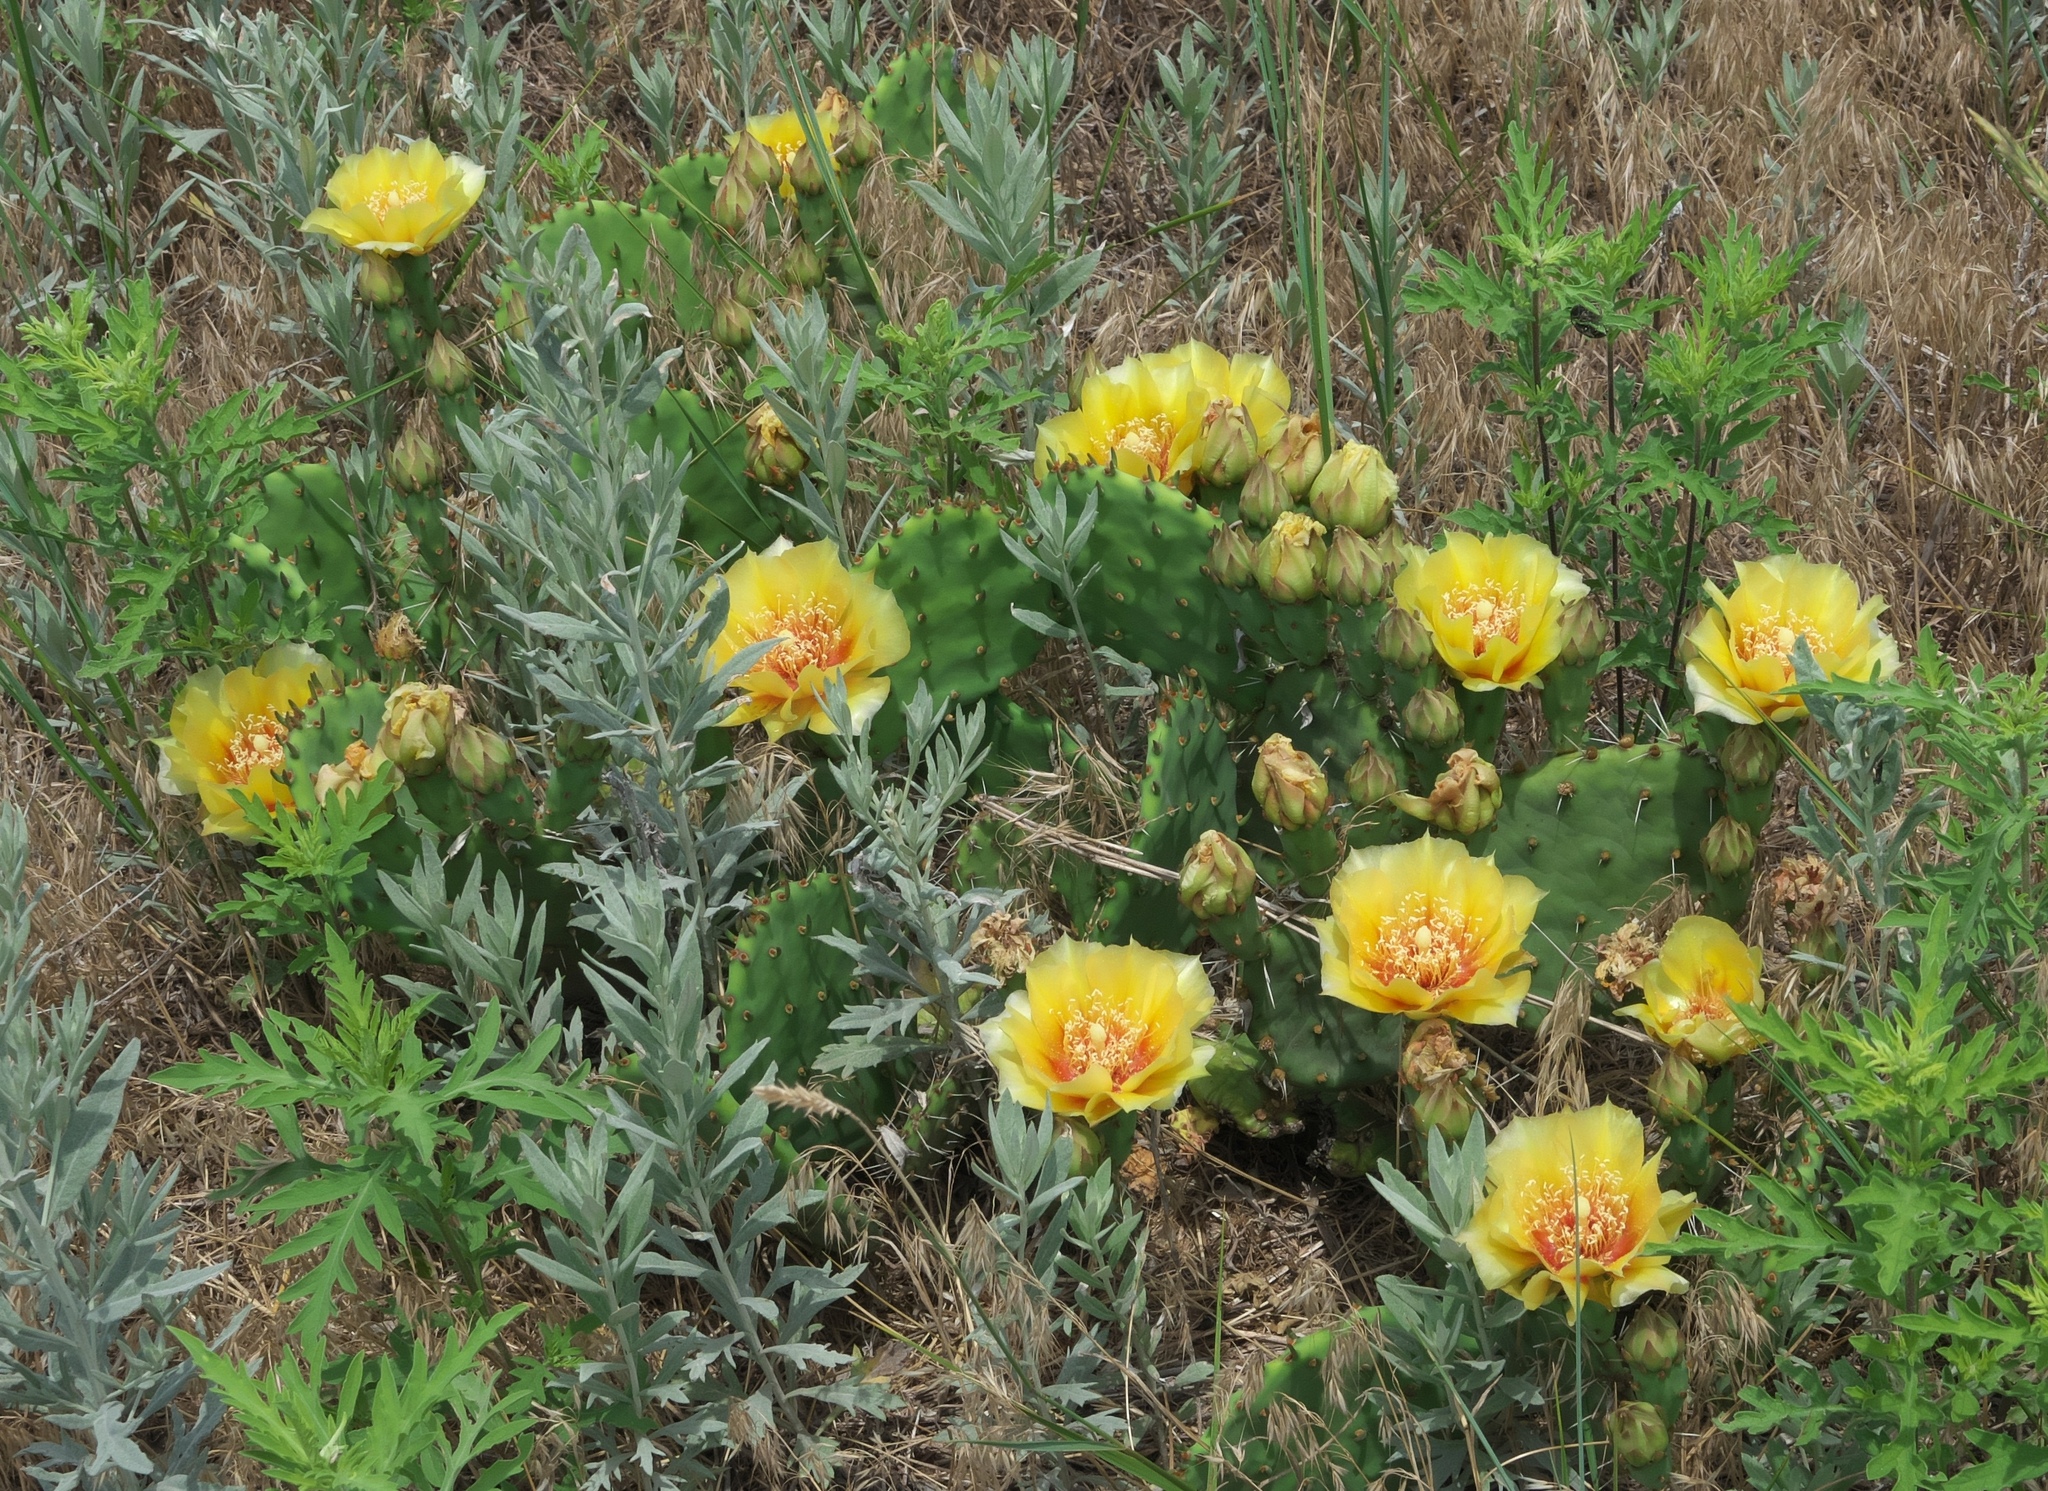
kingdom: Plantae
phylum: Tracheophyta
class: Magnoliopsida
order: Caryophyllales
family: Cactaceae
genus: Opuntia
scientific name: Opuntia macrorhiza
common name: Grassland pricklypear
